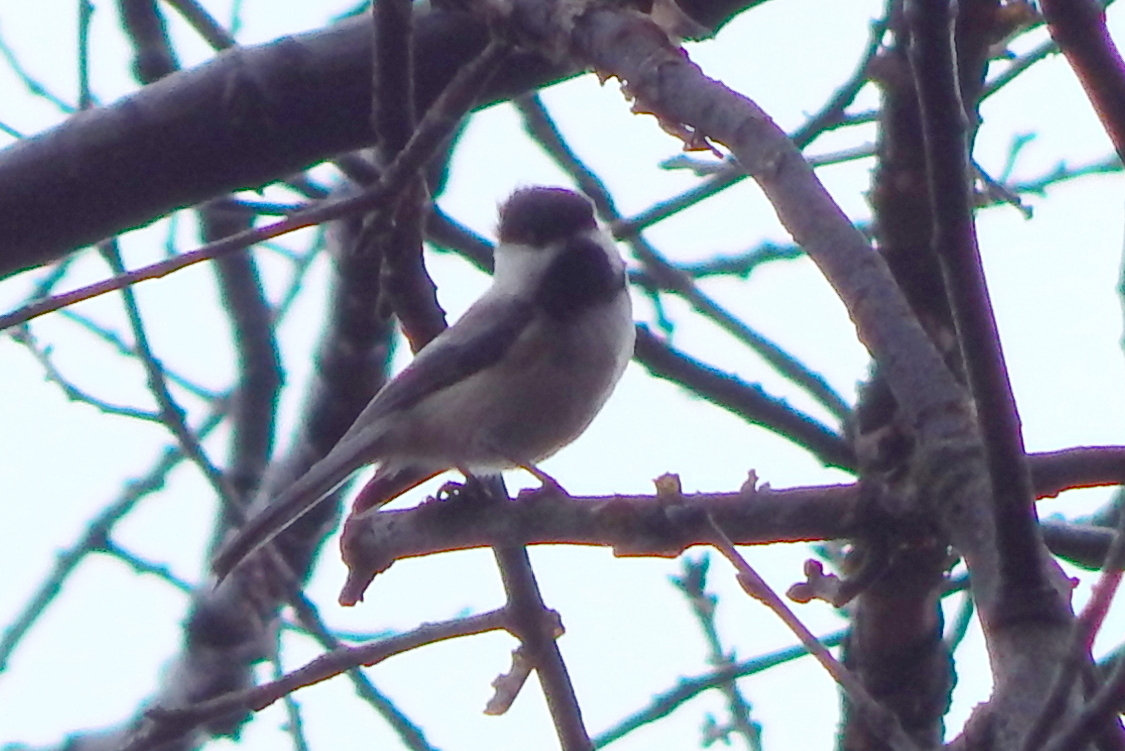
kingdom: Animalia
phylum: Chordata
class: Aves
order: Passeriformes
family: Paridae
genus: Poecile
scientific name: Poecile atricapillus
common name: Black-capped chickadee
